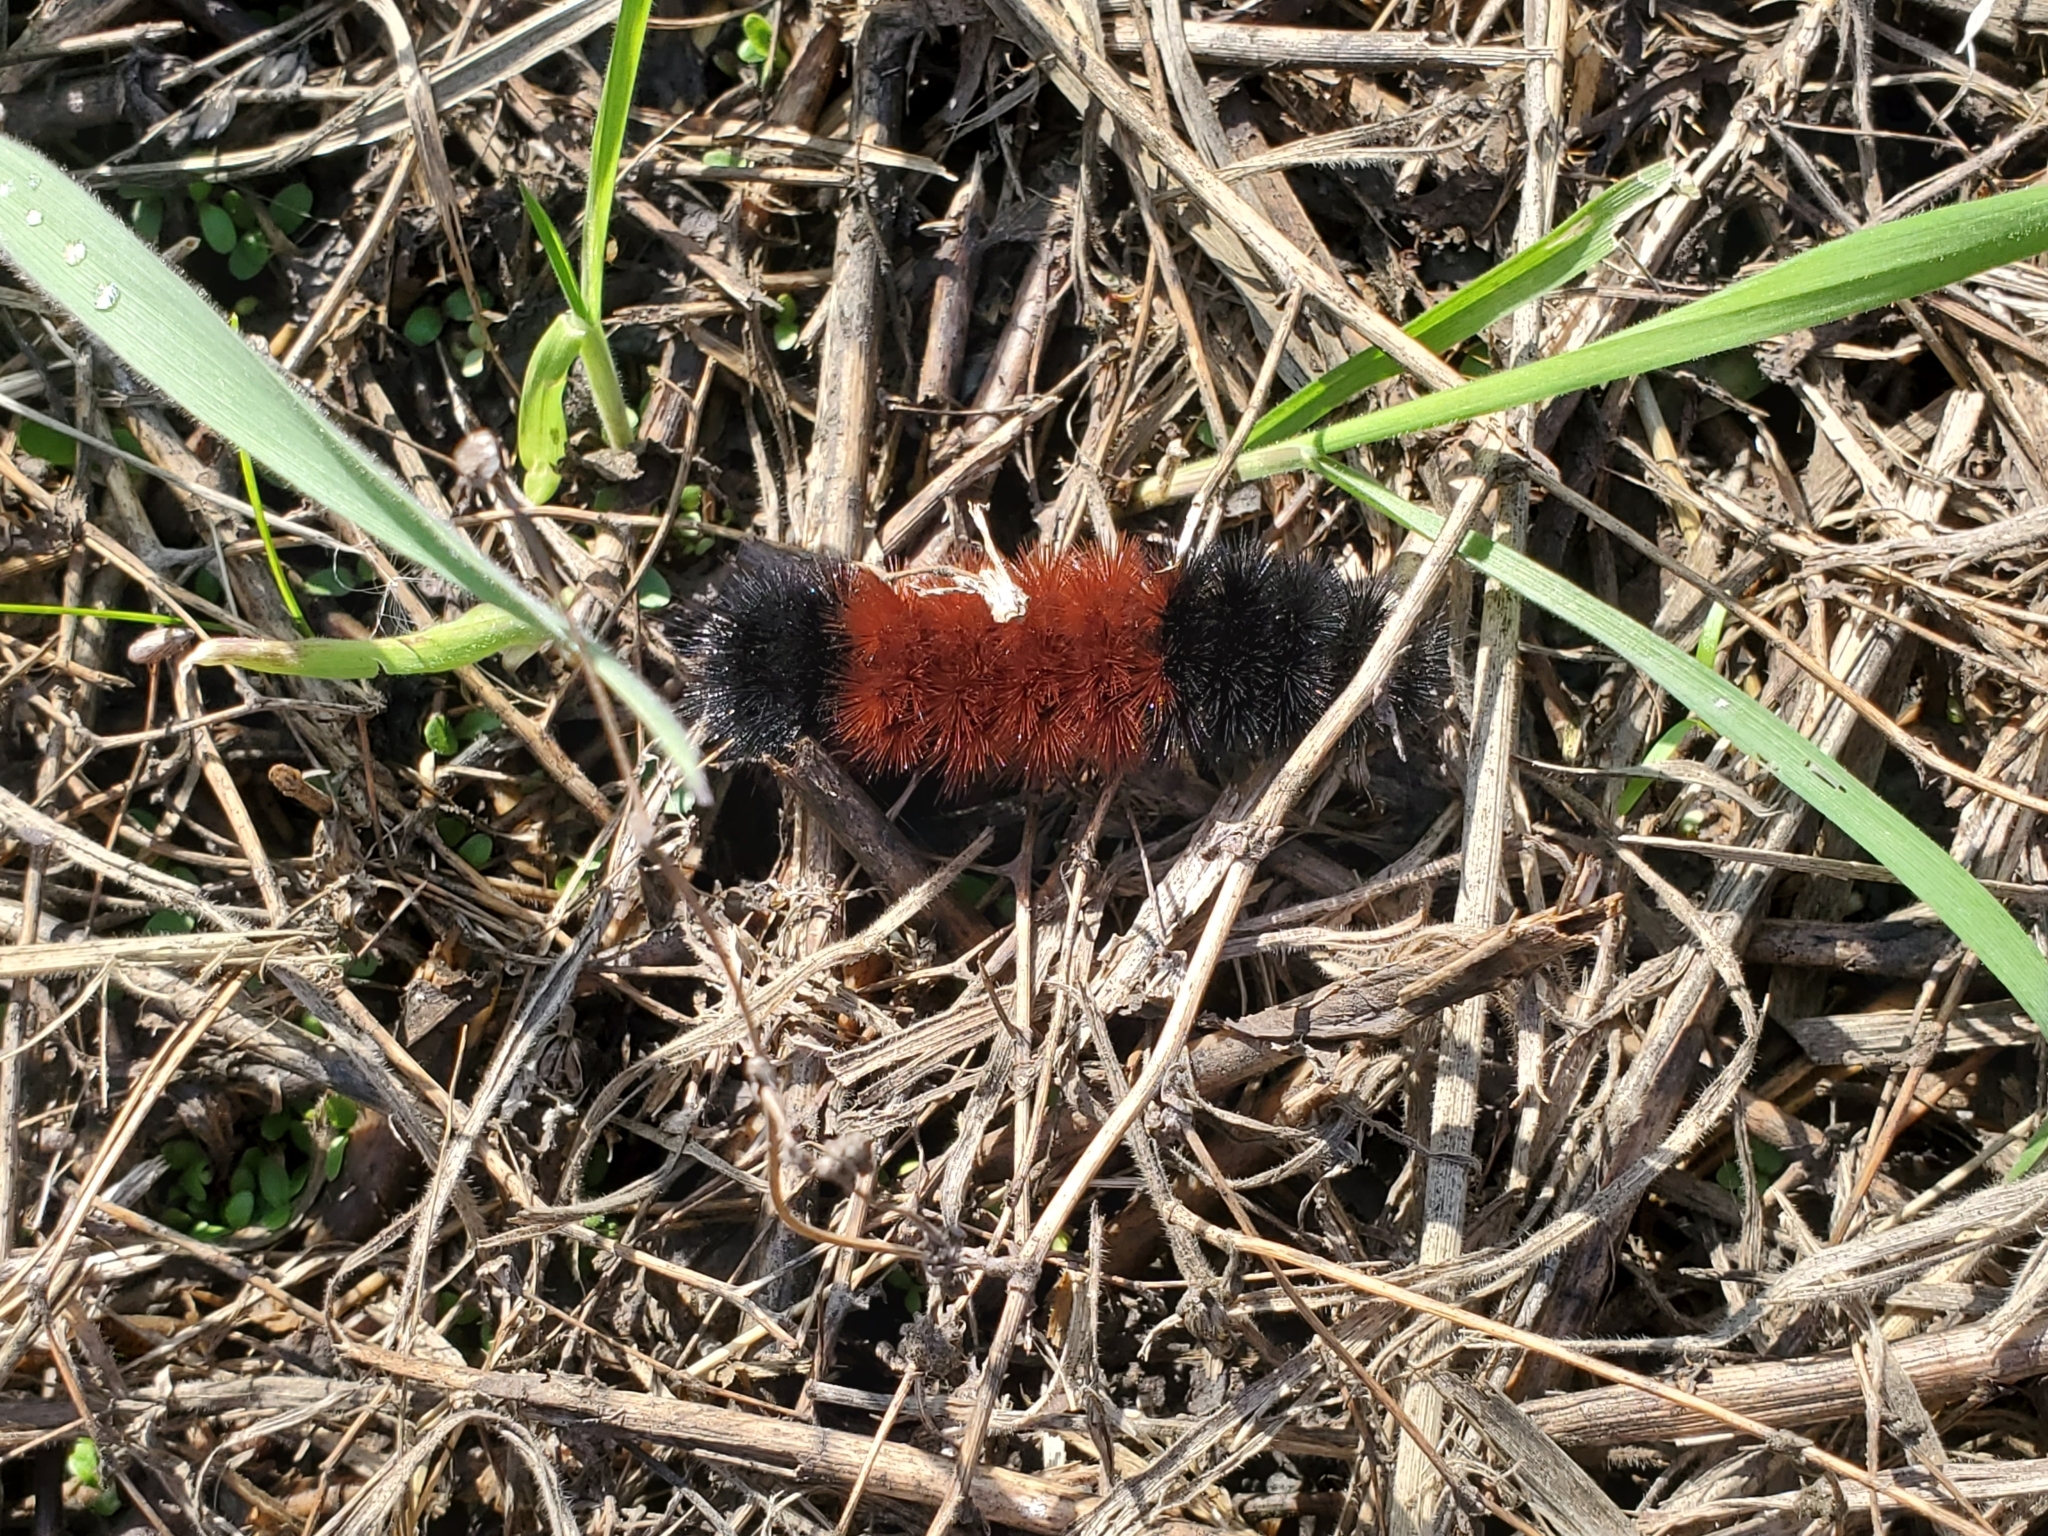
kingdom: Animalia
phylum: Arthropoda
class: Insecta
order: Lepidoptera
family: Erebidae
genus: Pyrrharctia
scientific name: Pyrrharctia isabella
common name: Isabella tiger moth
